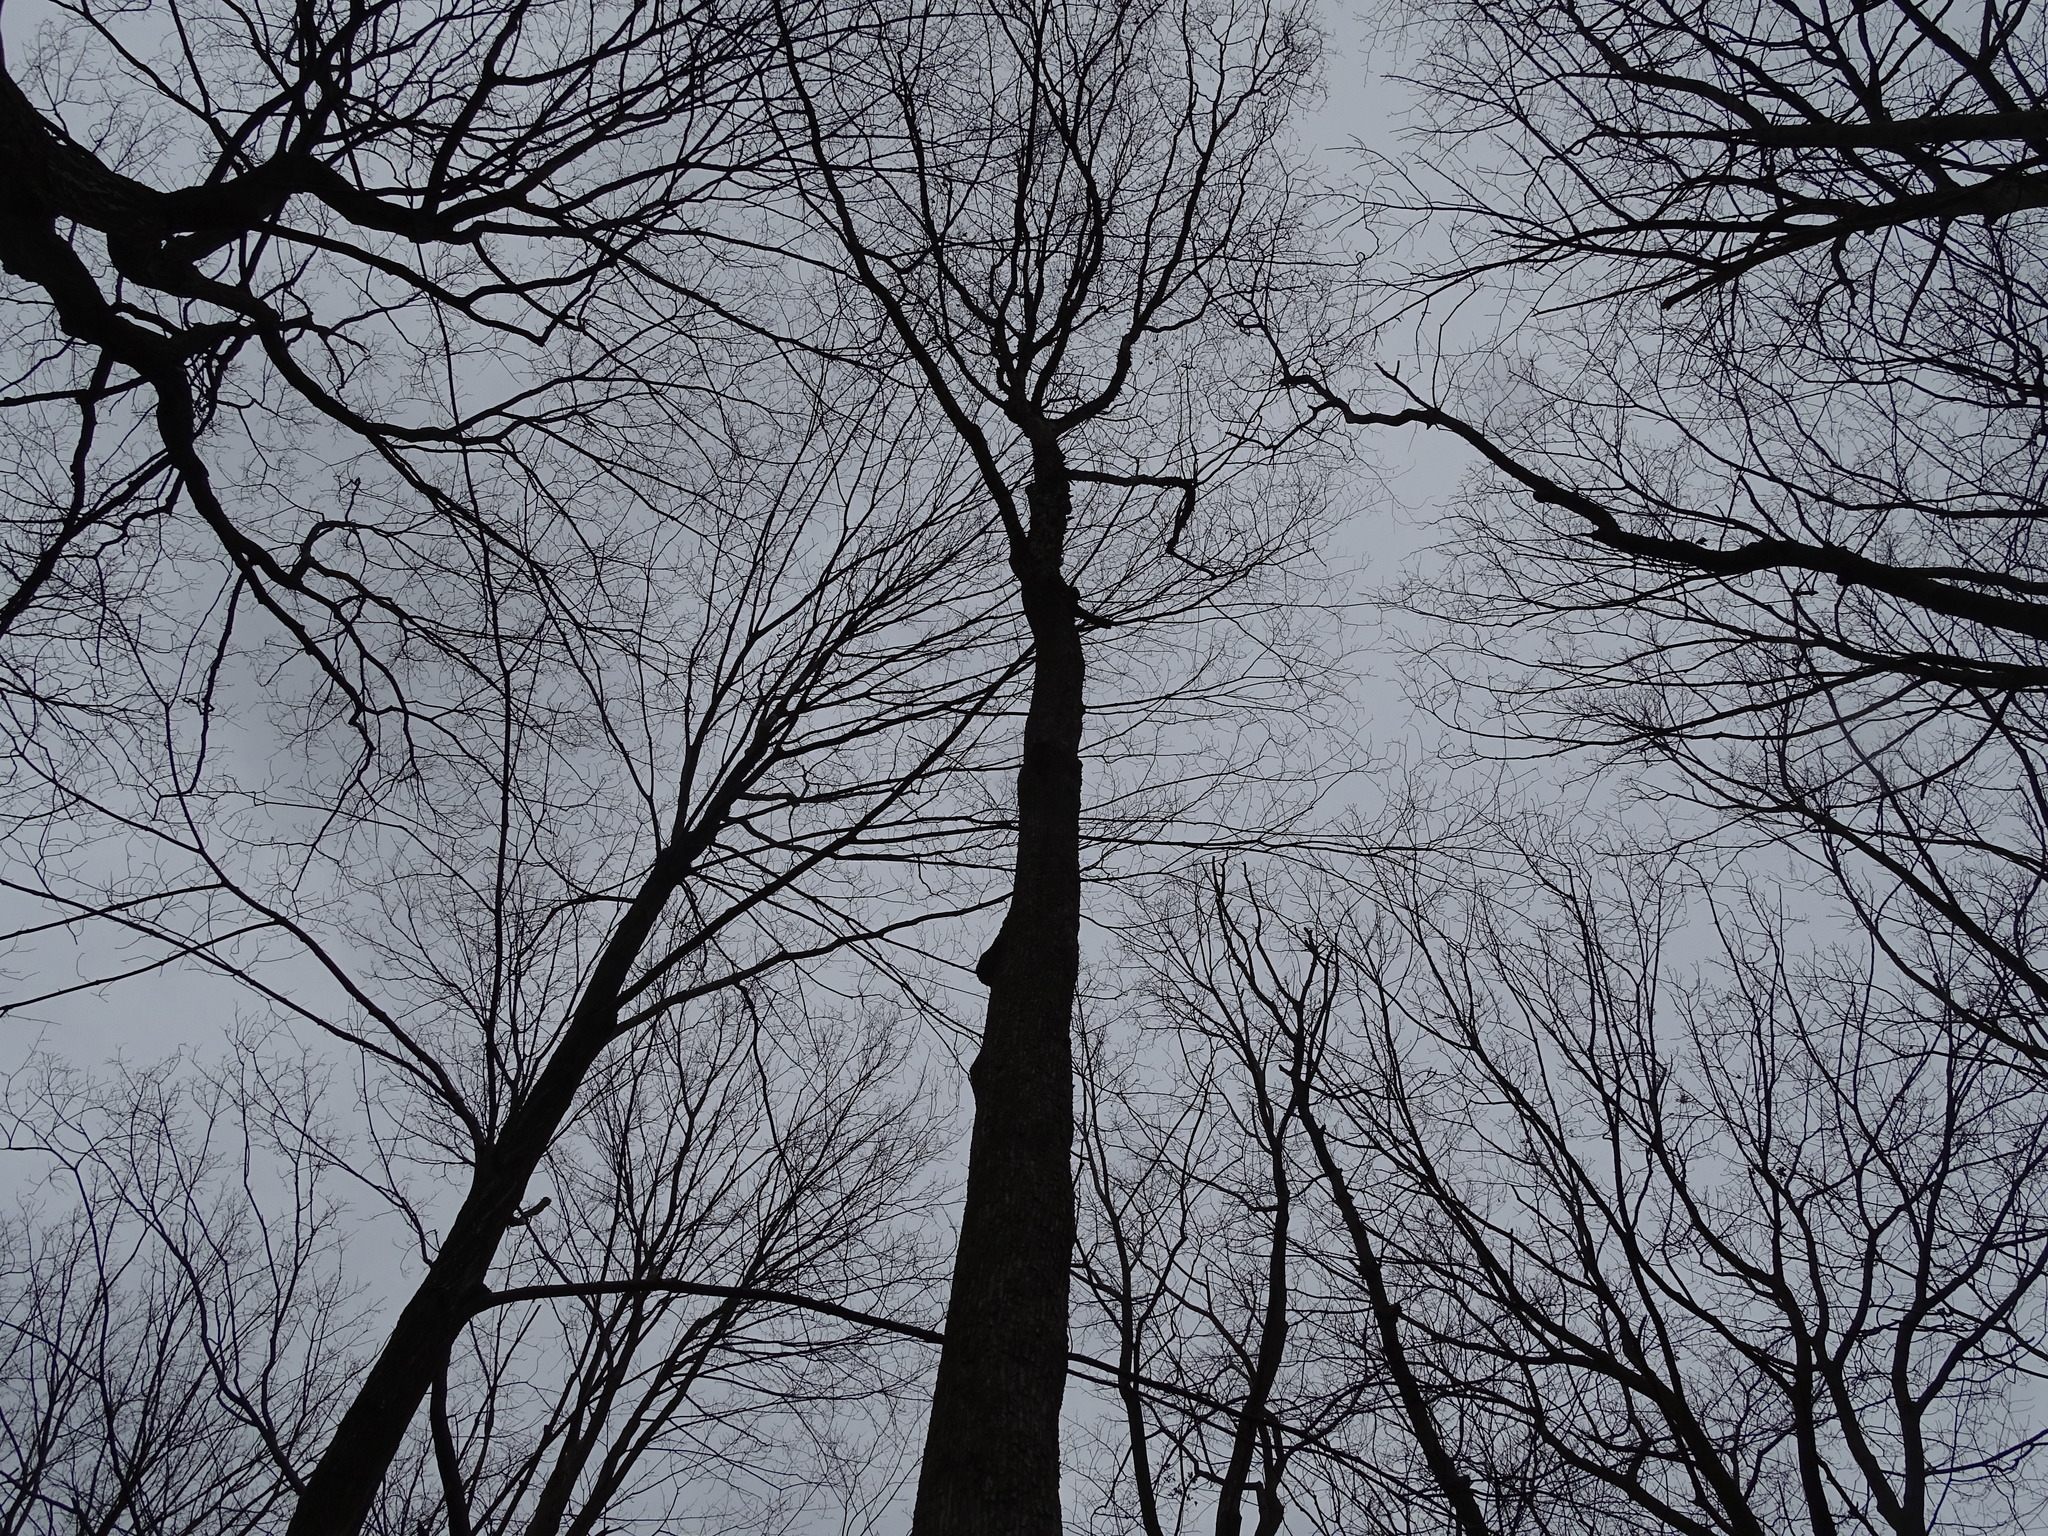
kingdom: Plantae
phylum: Tracheophyta
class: Magnoliopsida
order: Fagales
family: Betulaceae
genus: Ostrya
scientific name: Ostrya virginiana
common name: Ironwood
